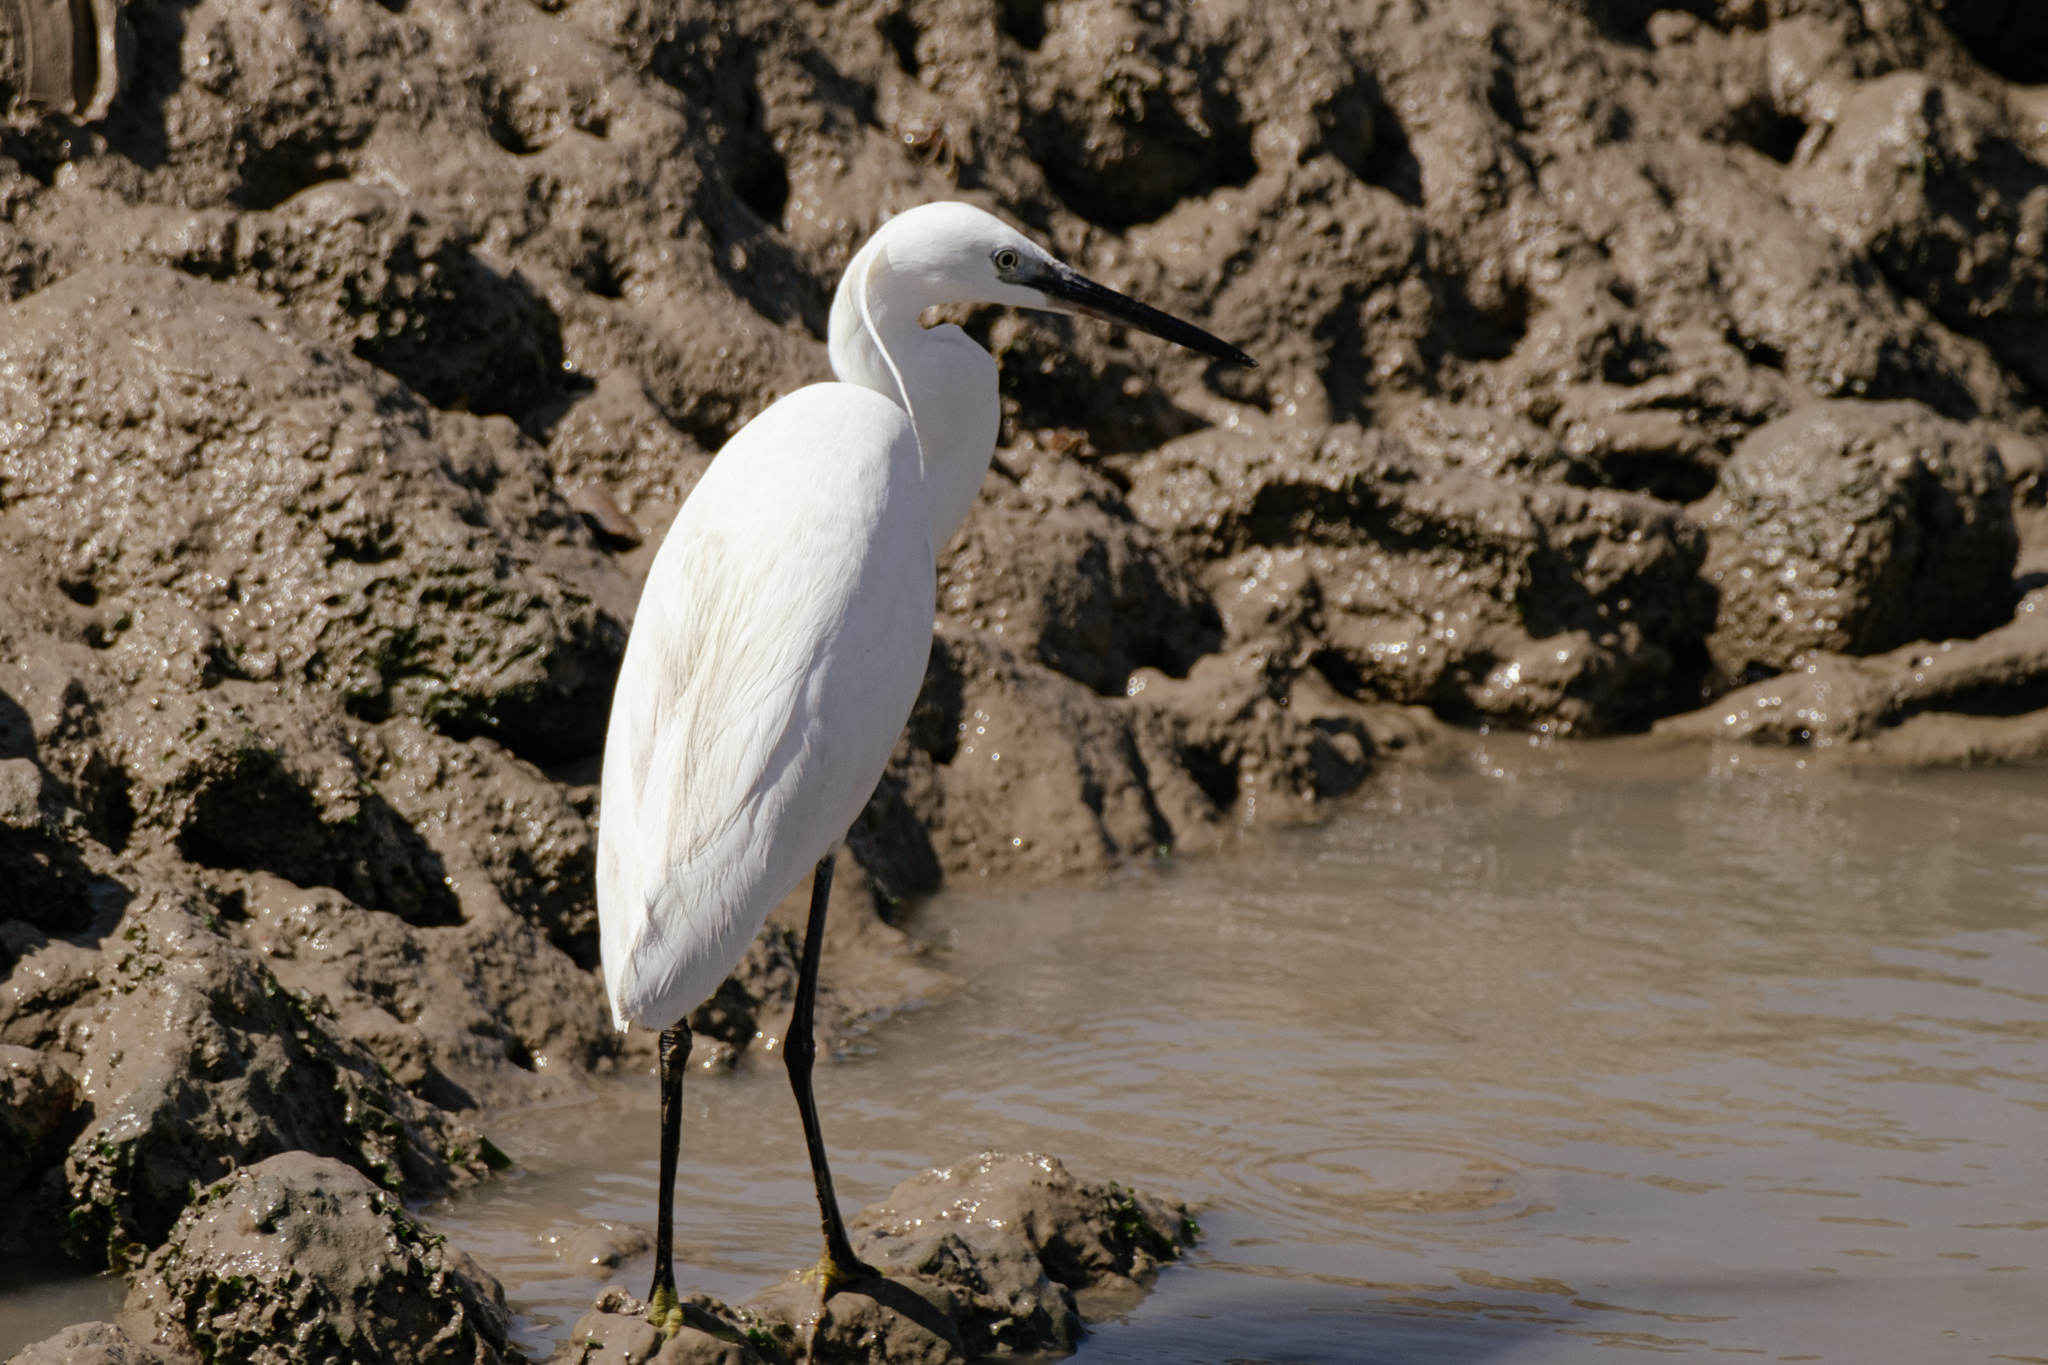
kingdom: Animalia
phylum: Chordata
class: Aves
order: Pelecaniformes
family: Ardeidae
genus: Egretta
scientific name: Egretta garzetta
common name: Little egret
